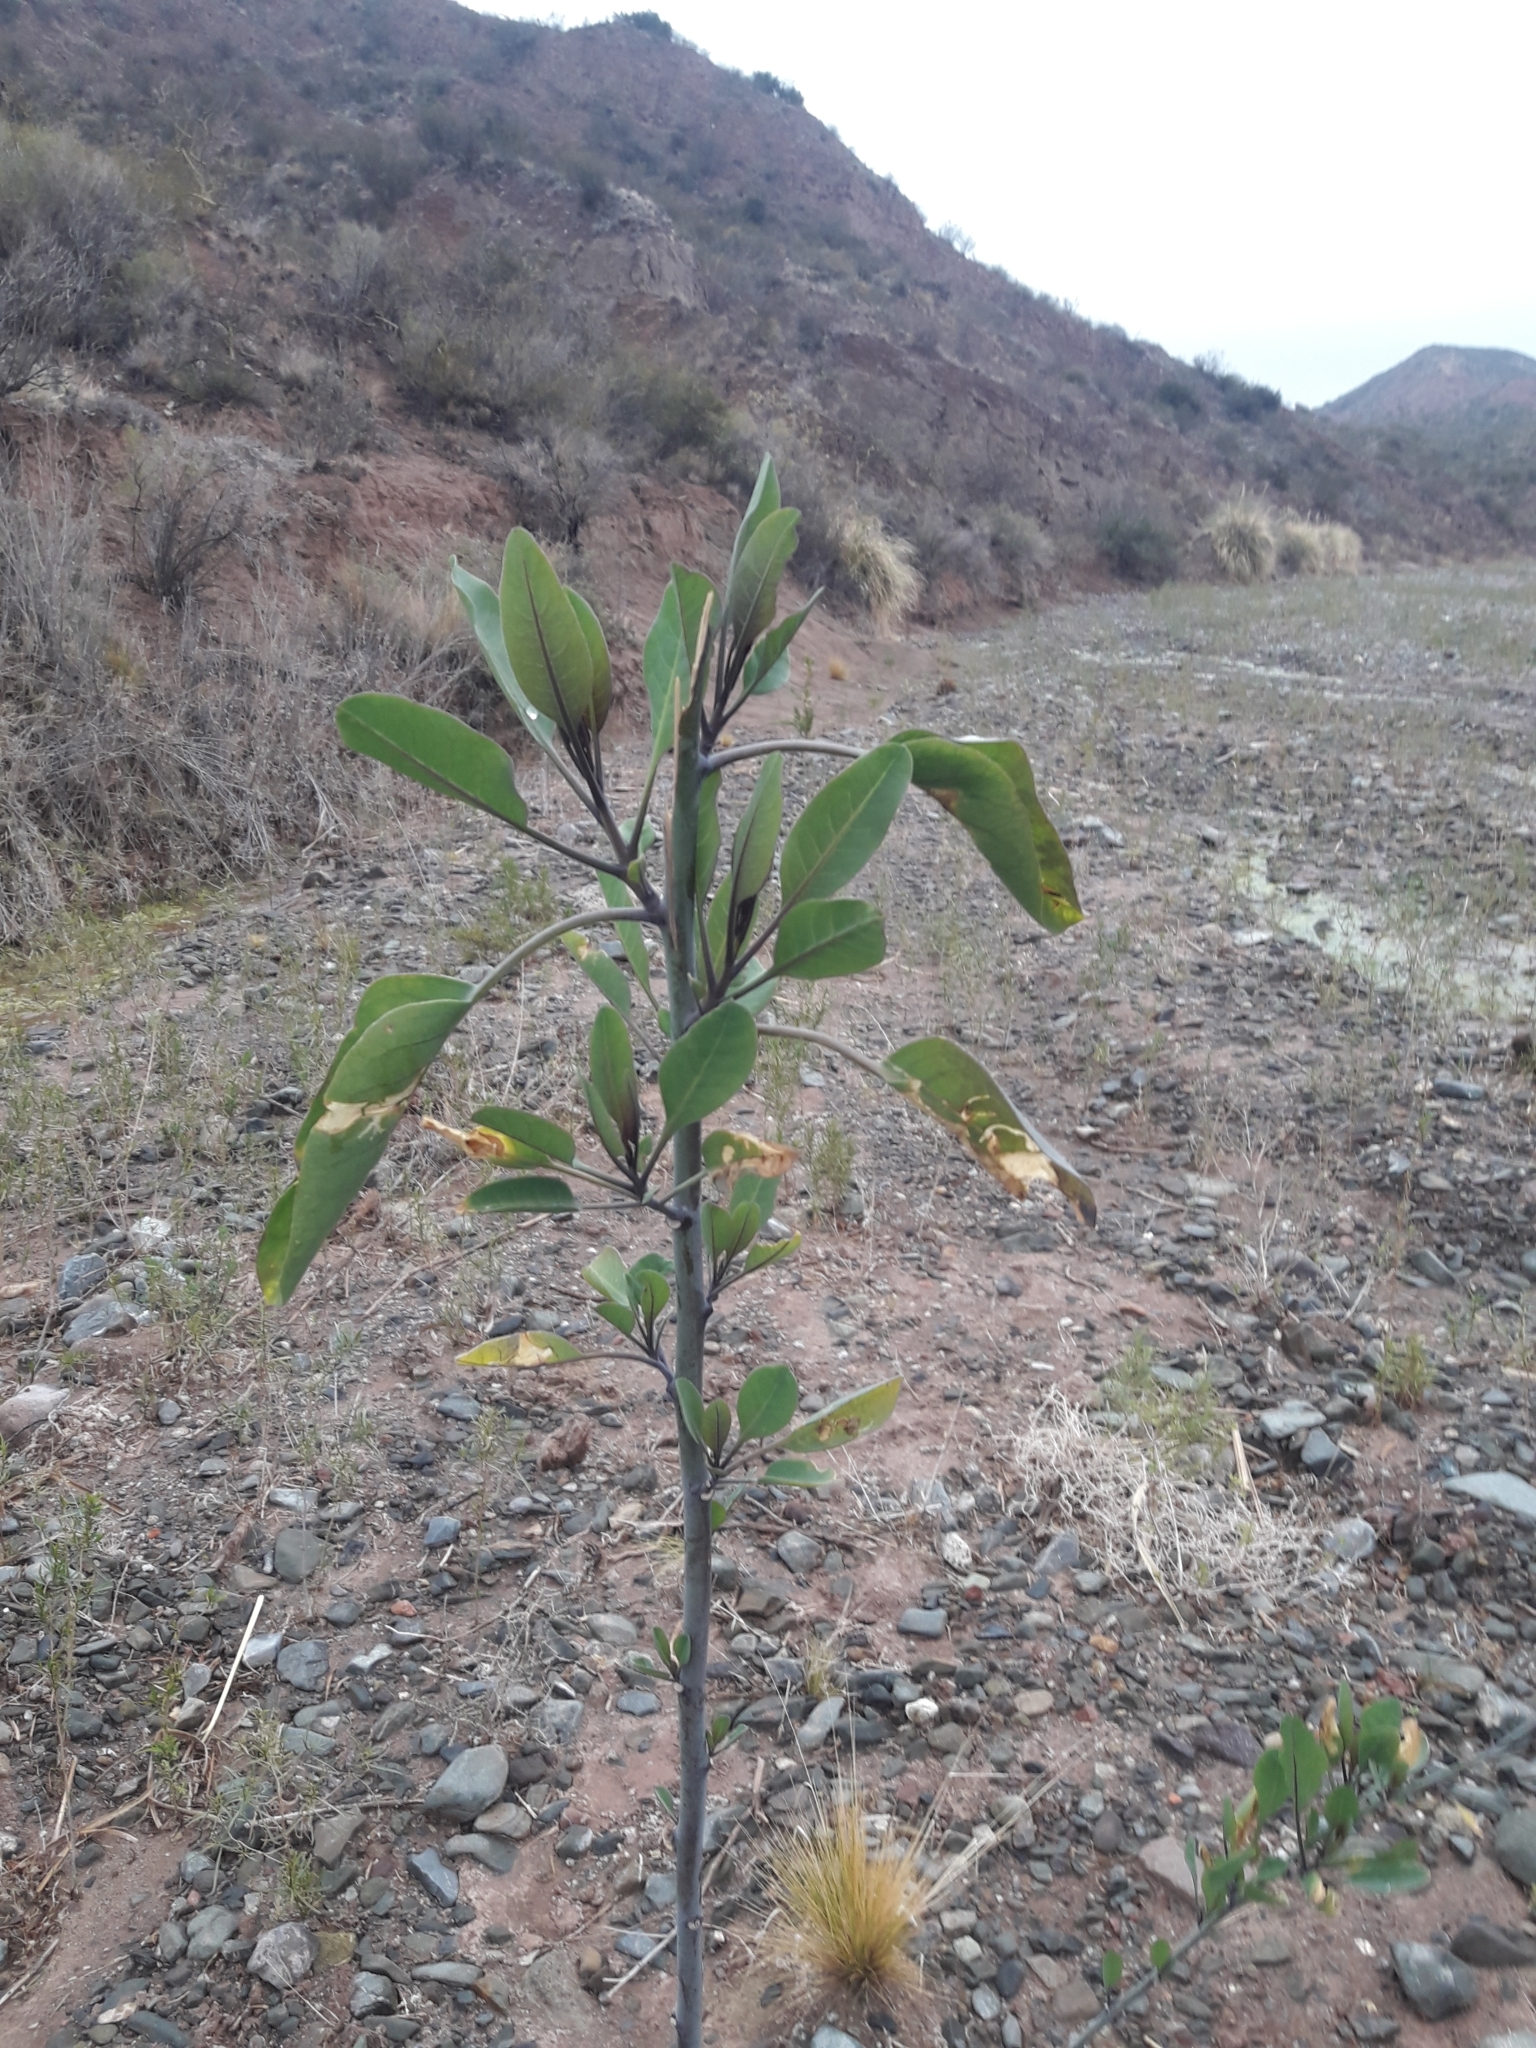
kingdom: Plantae
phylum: Tracheophyta
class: Magnoliopsida
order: Solanales
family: Solanaceae
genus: Nicotiana
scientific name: Nicotiana glauca
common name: Tree tobacco
